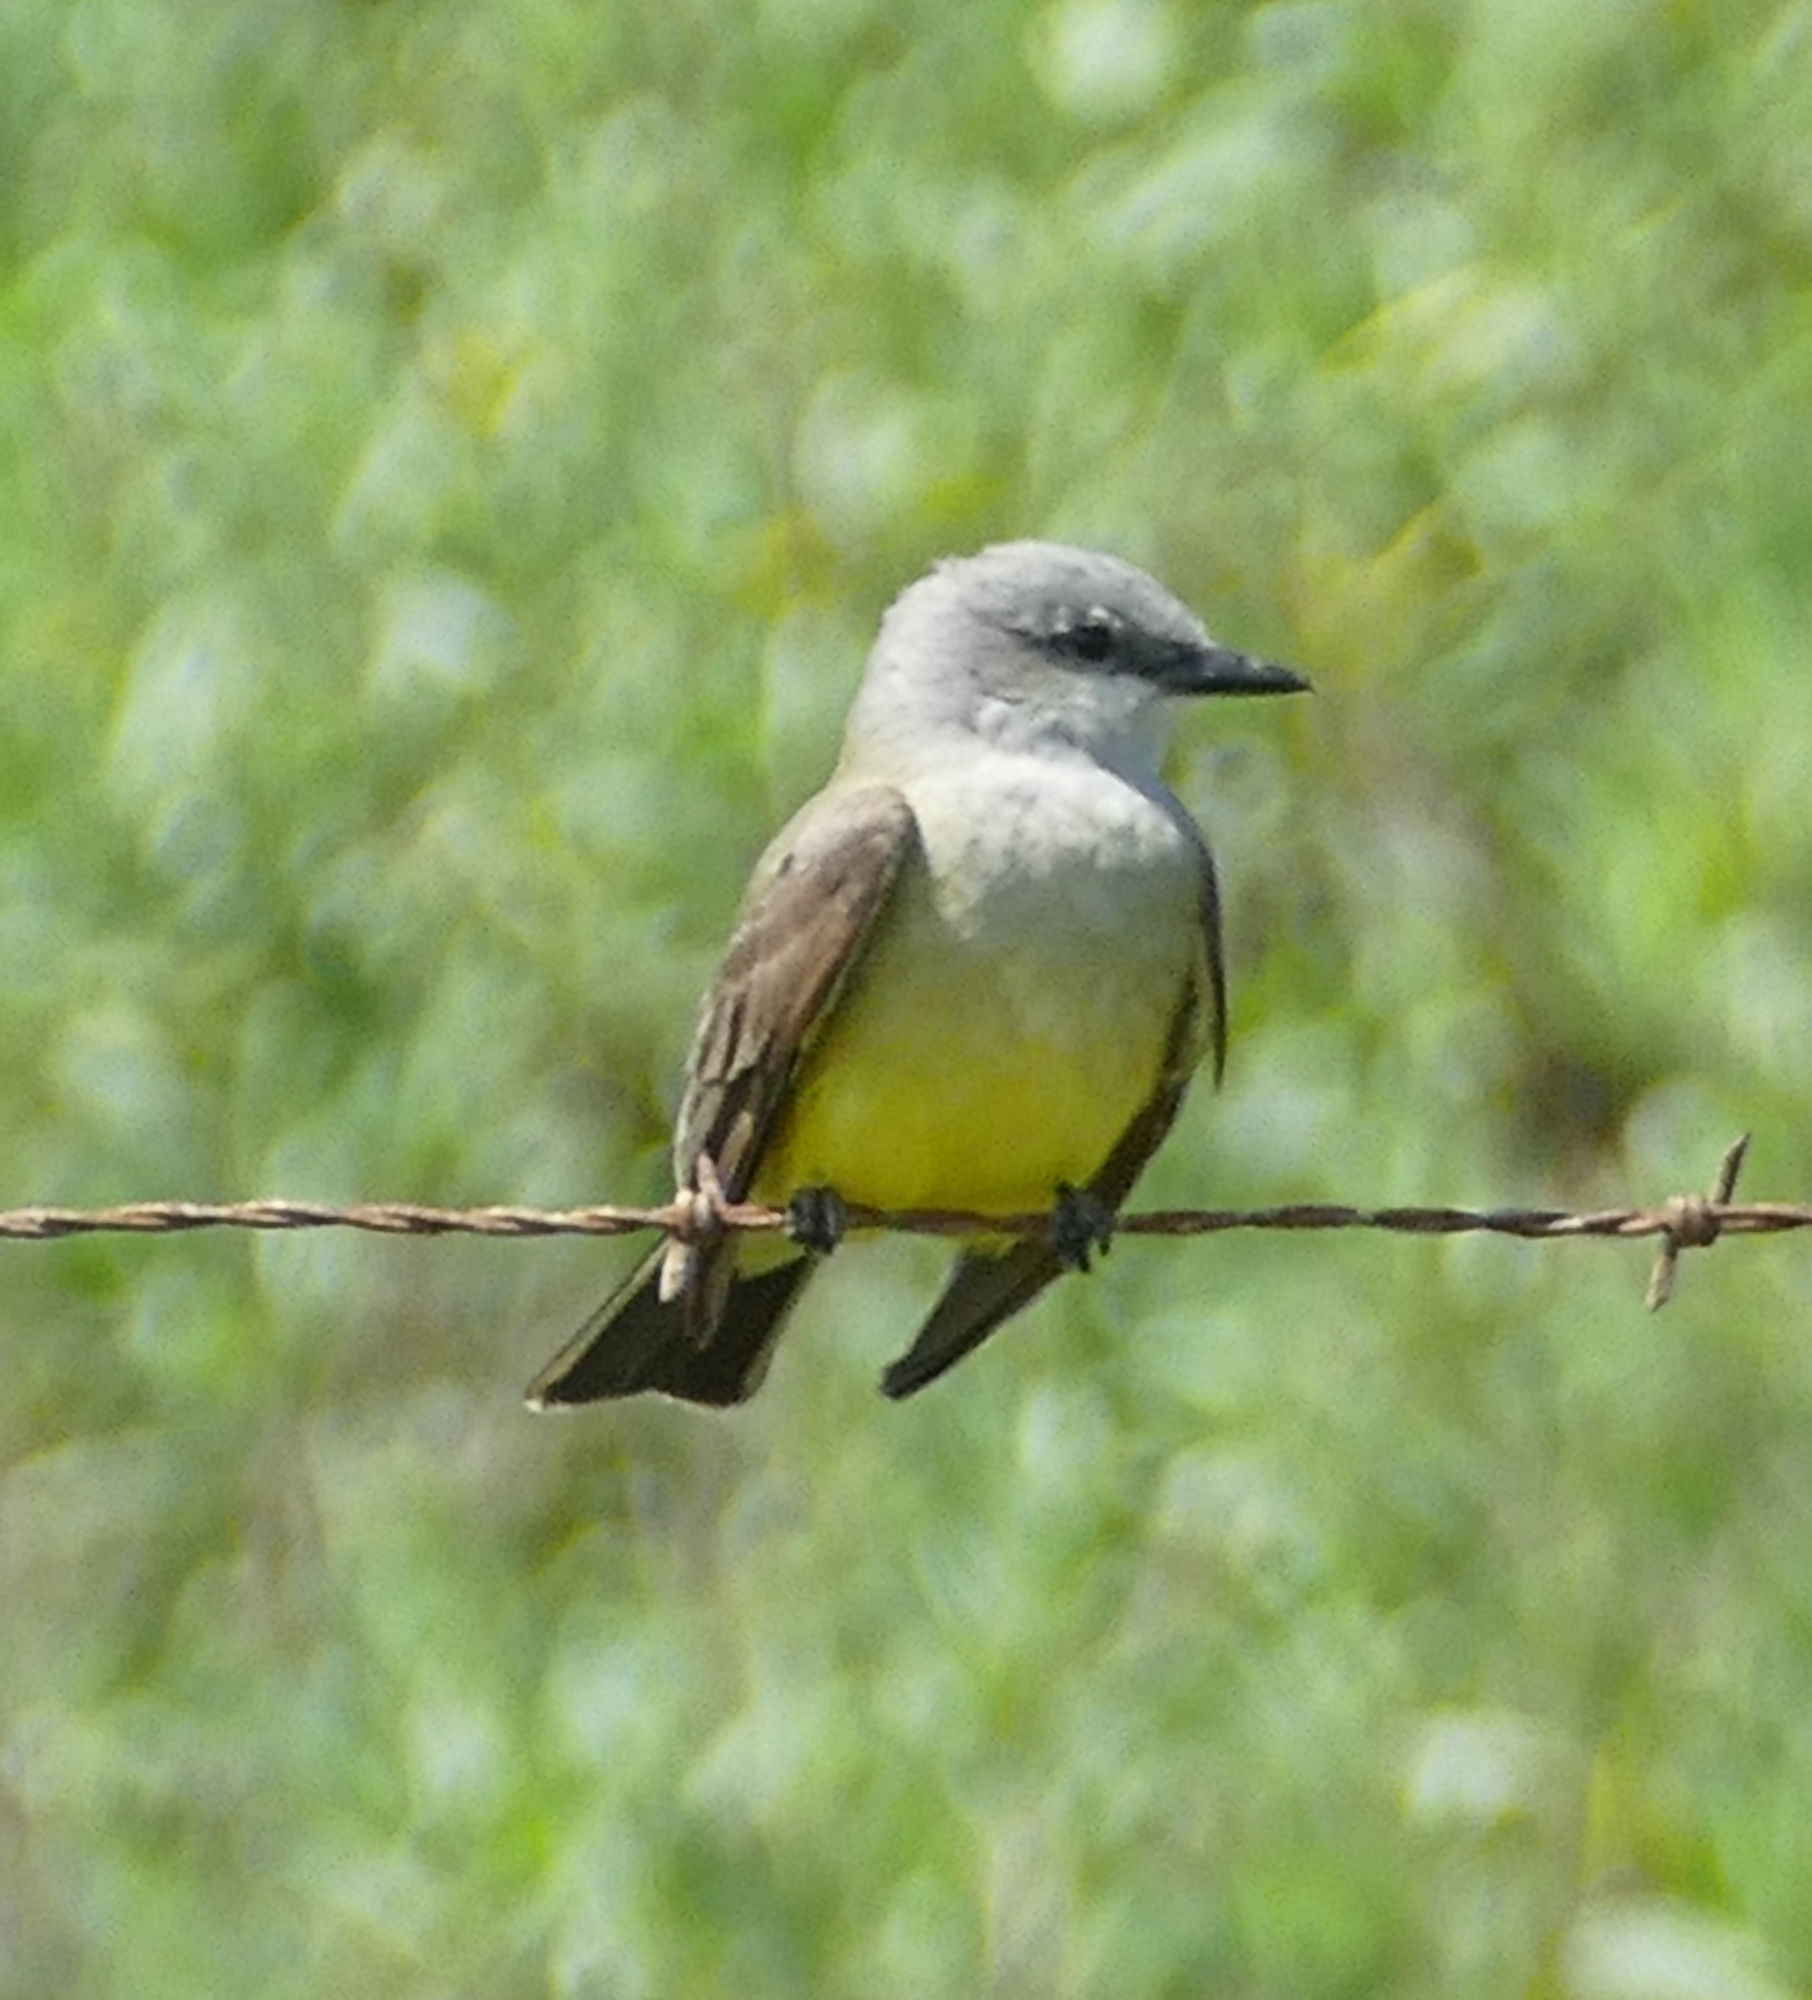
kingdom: Animalia
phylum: Chordata
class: Aves
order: Passeriformes
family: Tyrannidae
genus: Tyrannus
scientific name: Tyrannus verticalis
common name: Western kingbird
